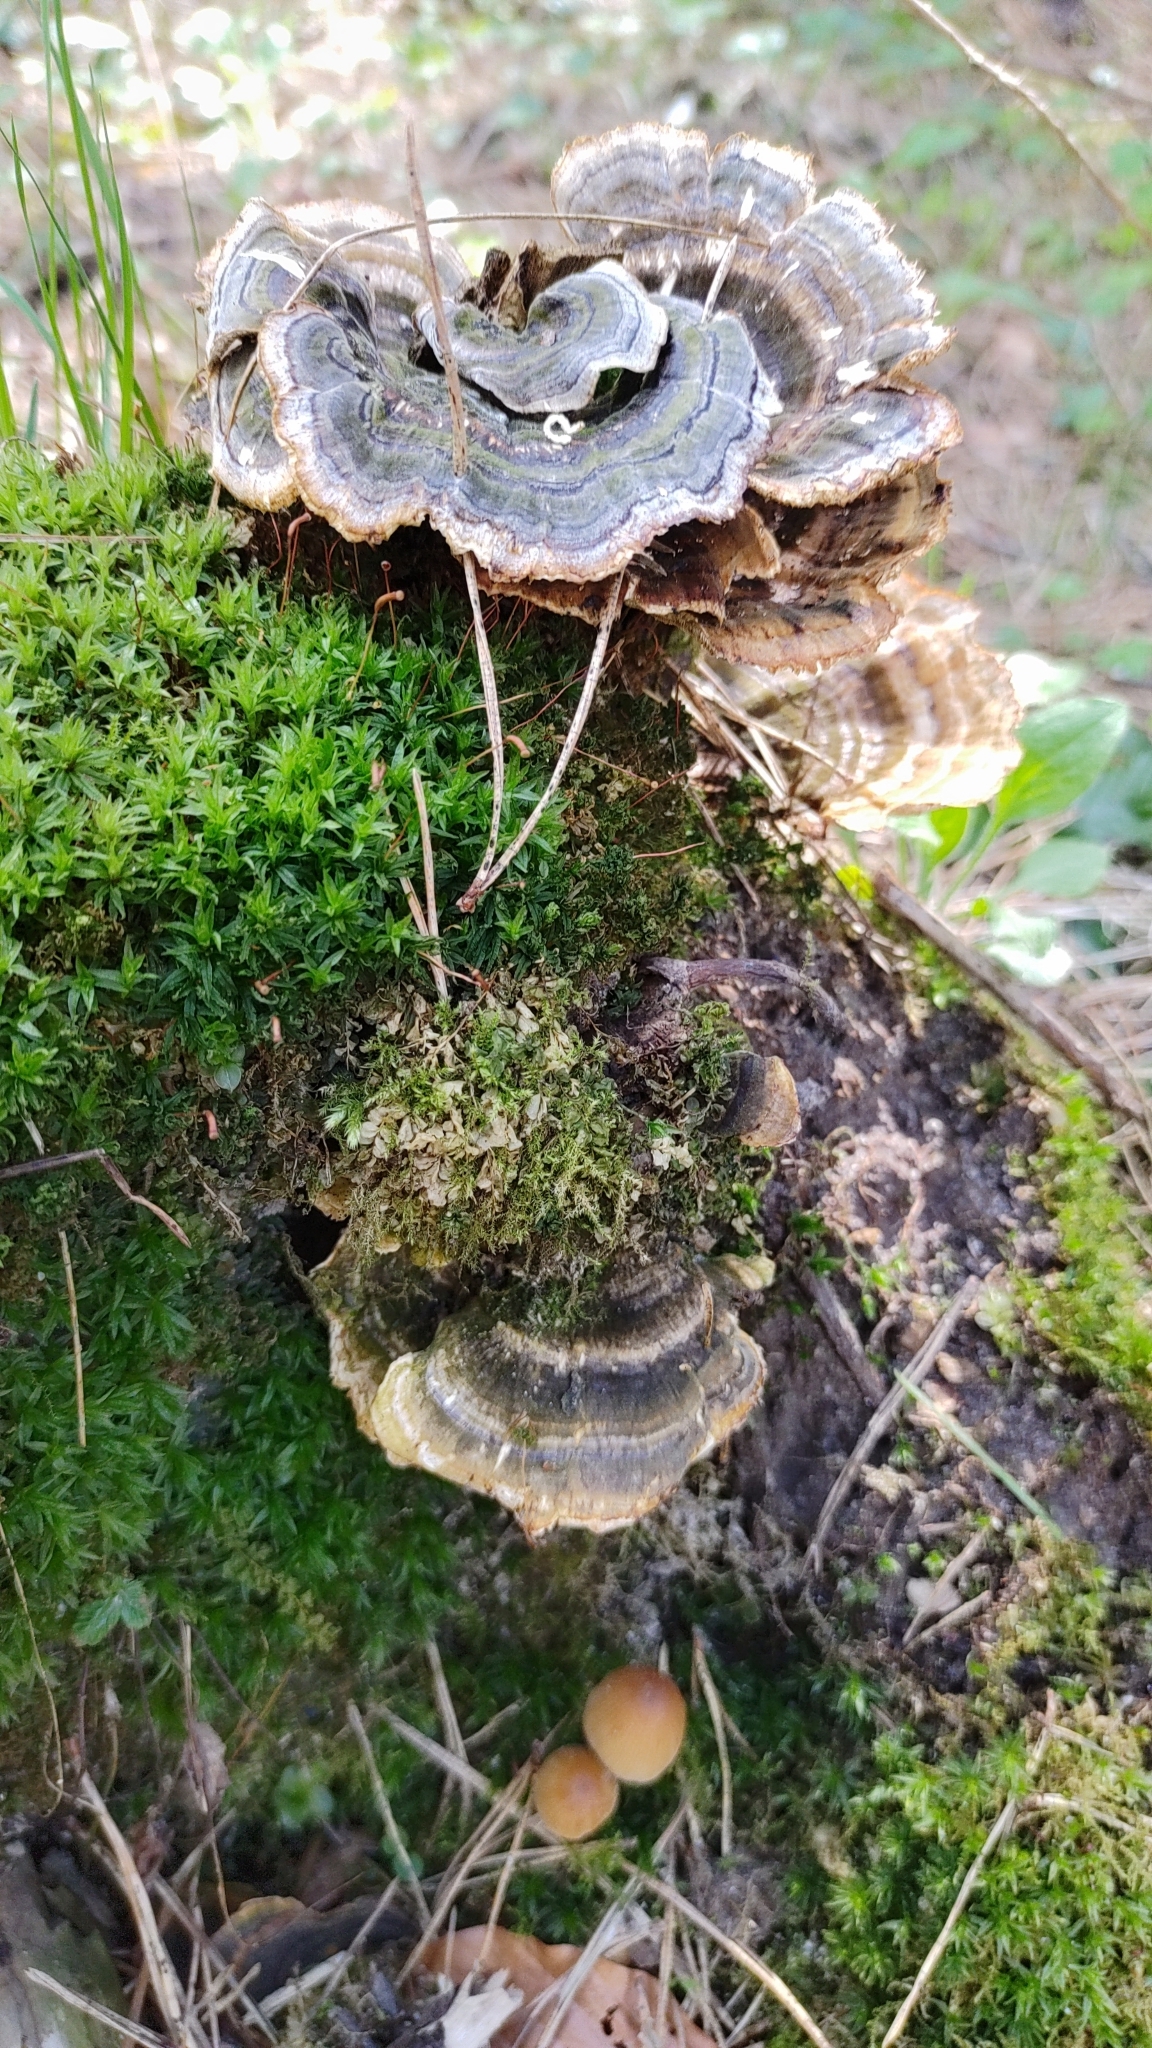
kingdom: Fungi
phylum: Basidiomycota
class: Agaricomycetes
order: Polyporales
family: Polyporaceae
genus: Trametes
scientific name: Trametes versicolor
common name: Turkeytail
